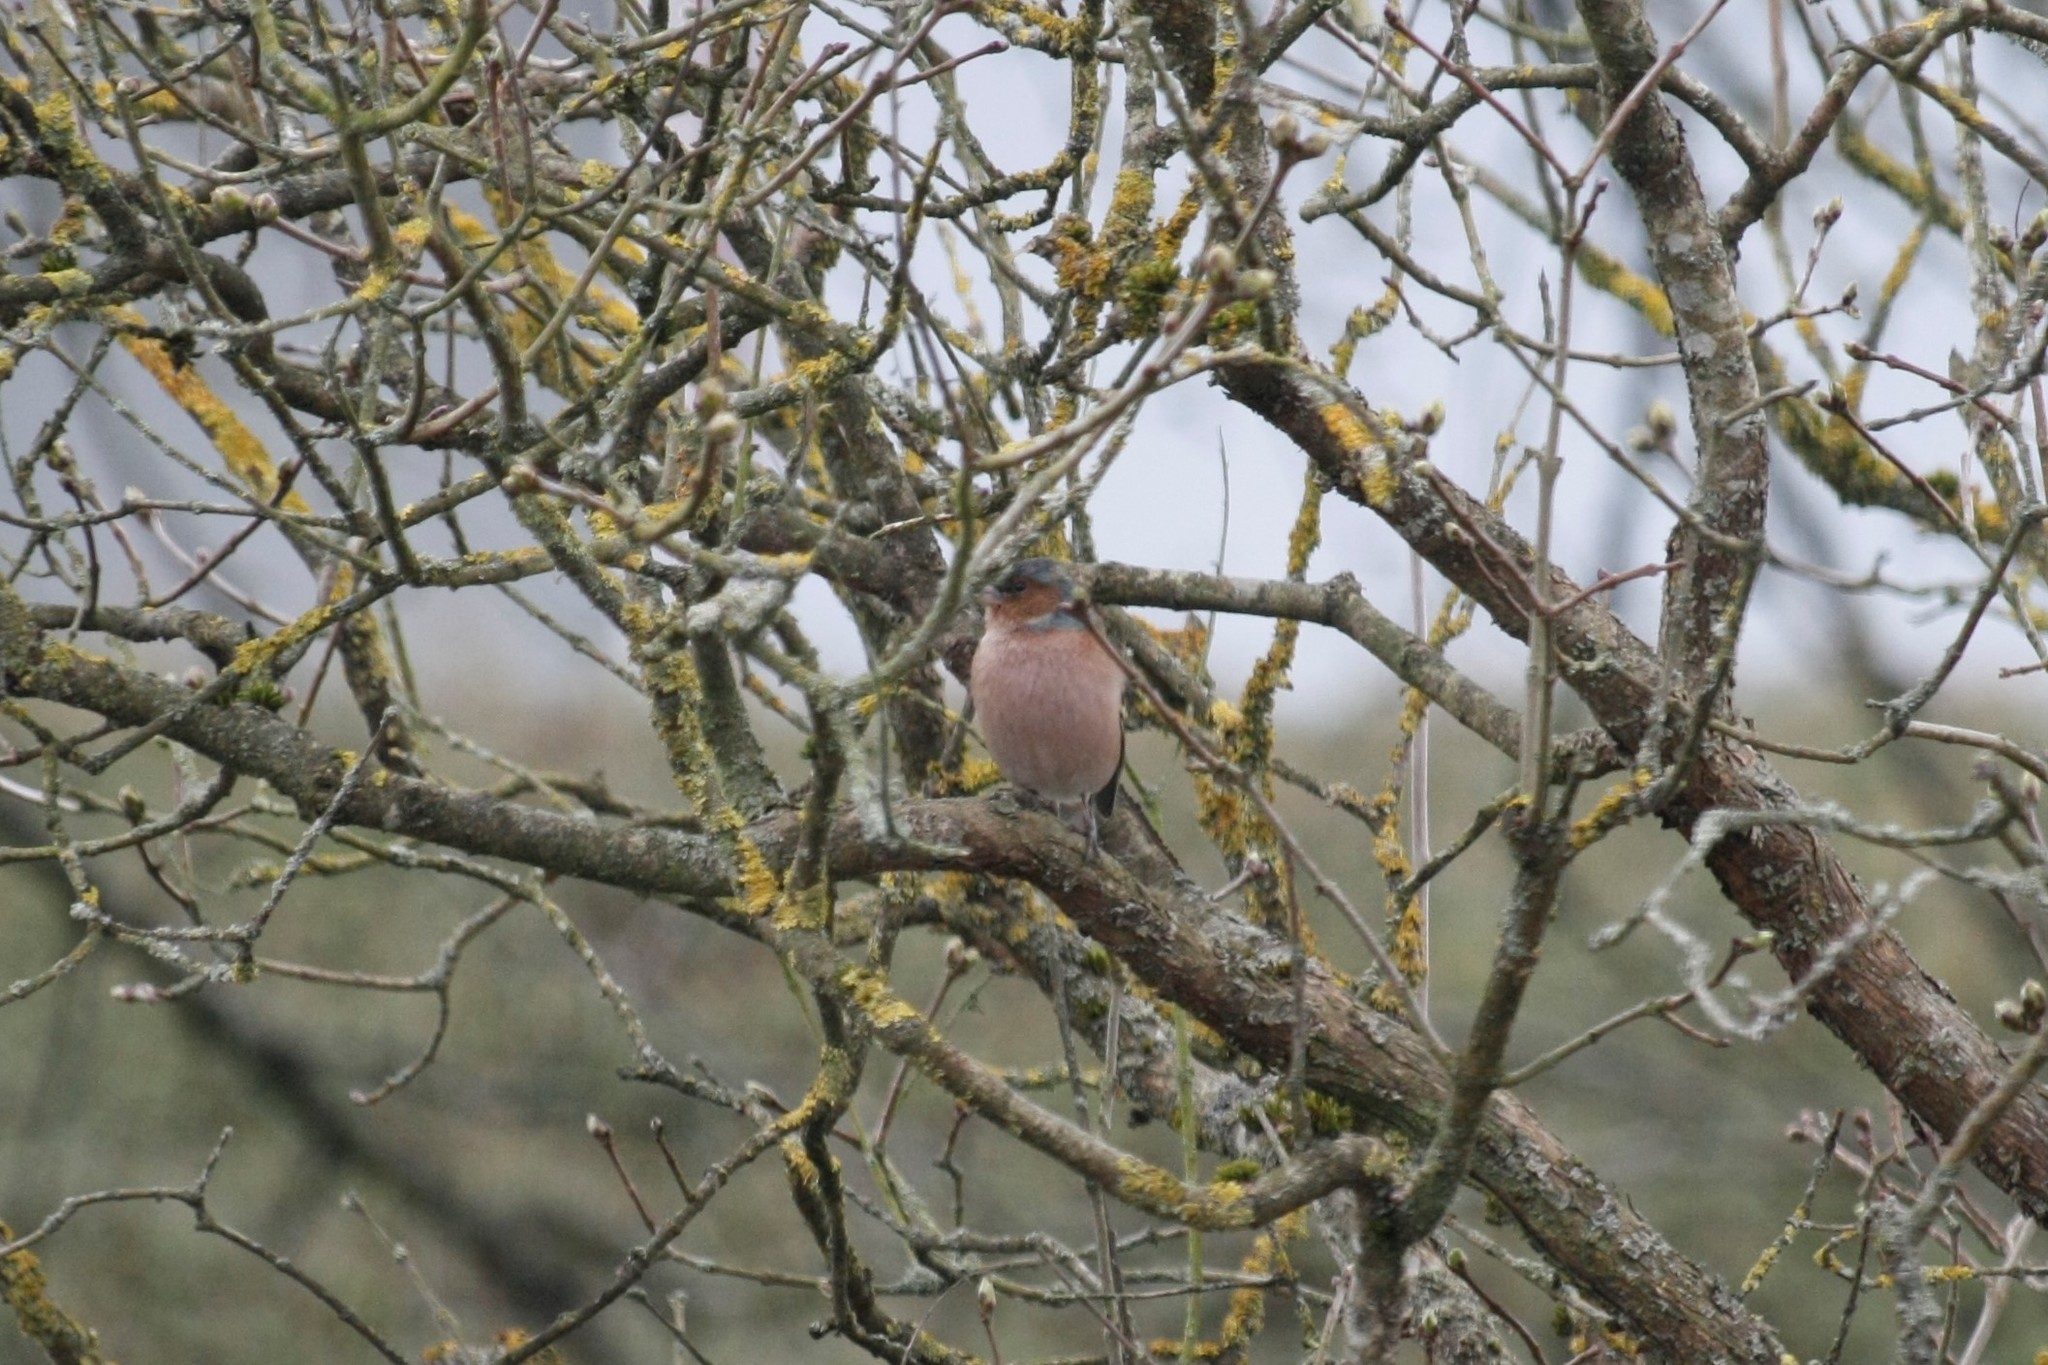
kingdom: Animalia
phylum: Chordata
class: Aves
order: Passeriformes
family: Fringillidae
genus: Fringilla
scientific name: Fringilla coelebs
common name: Common chaffinch
